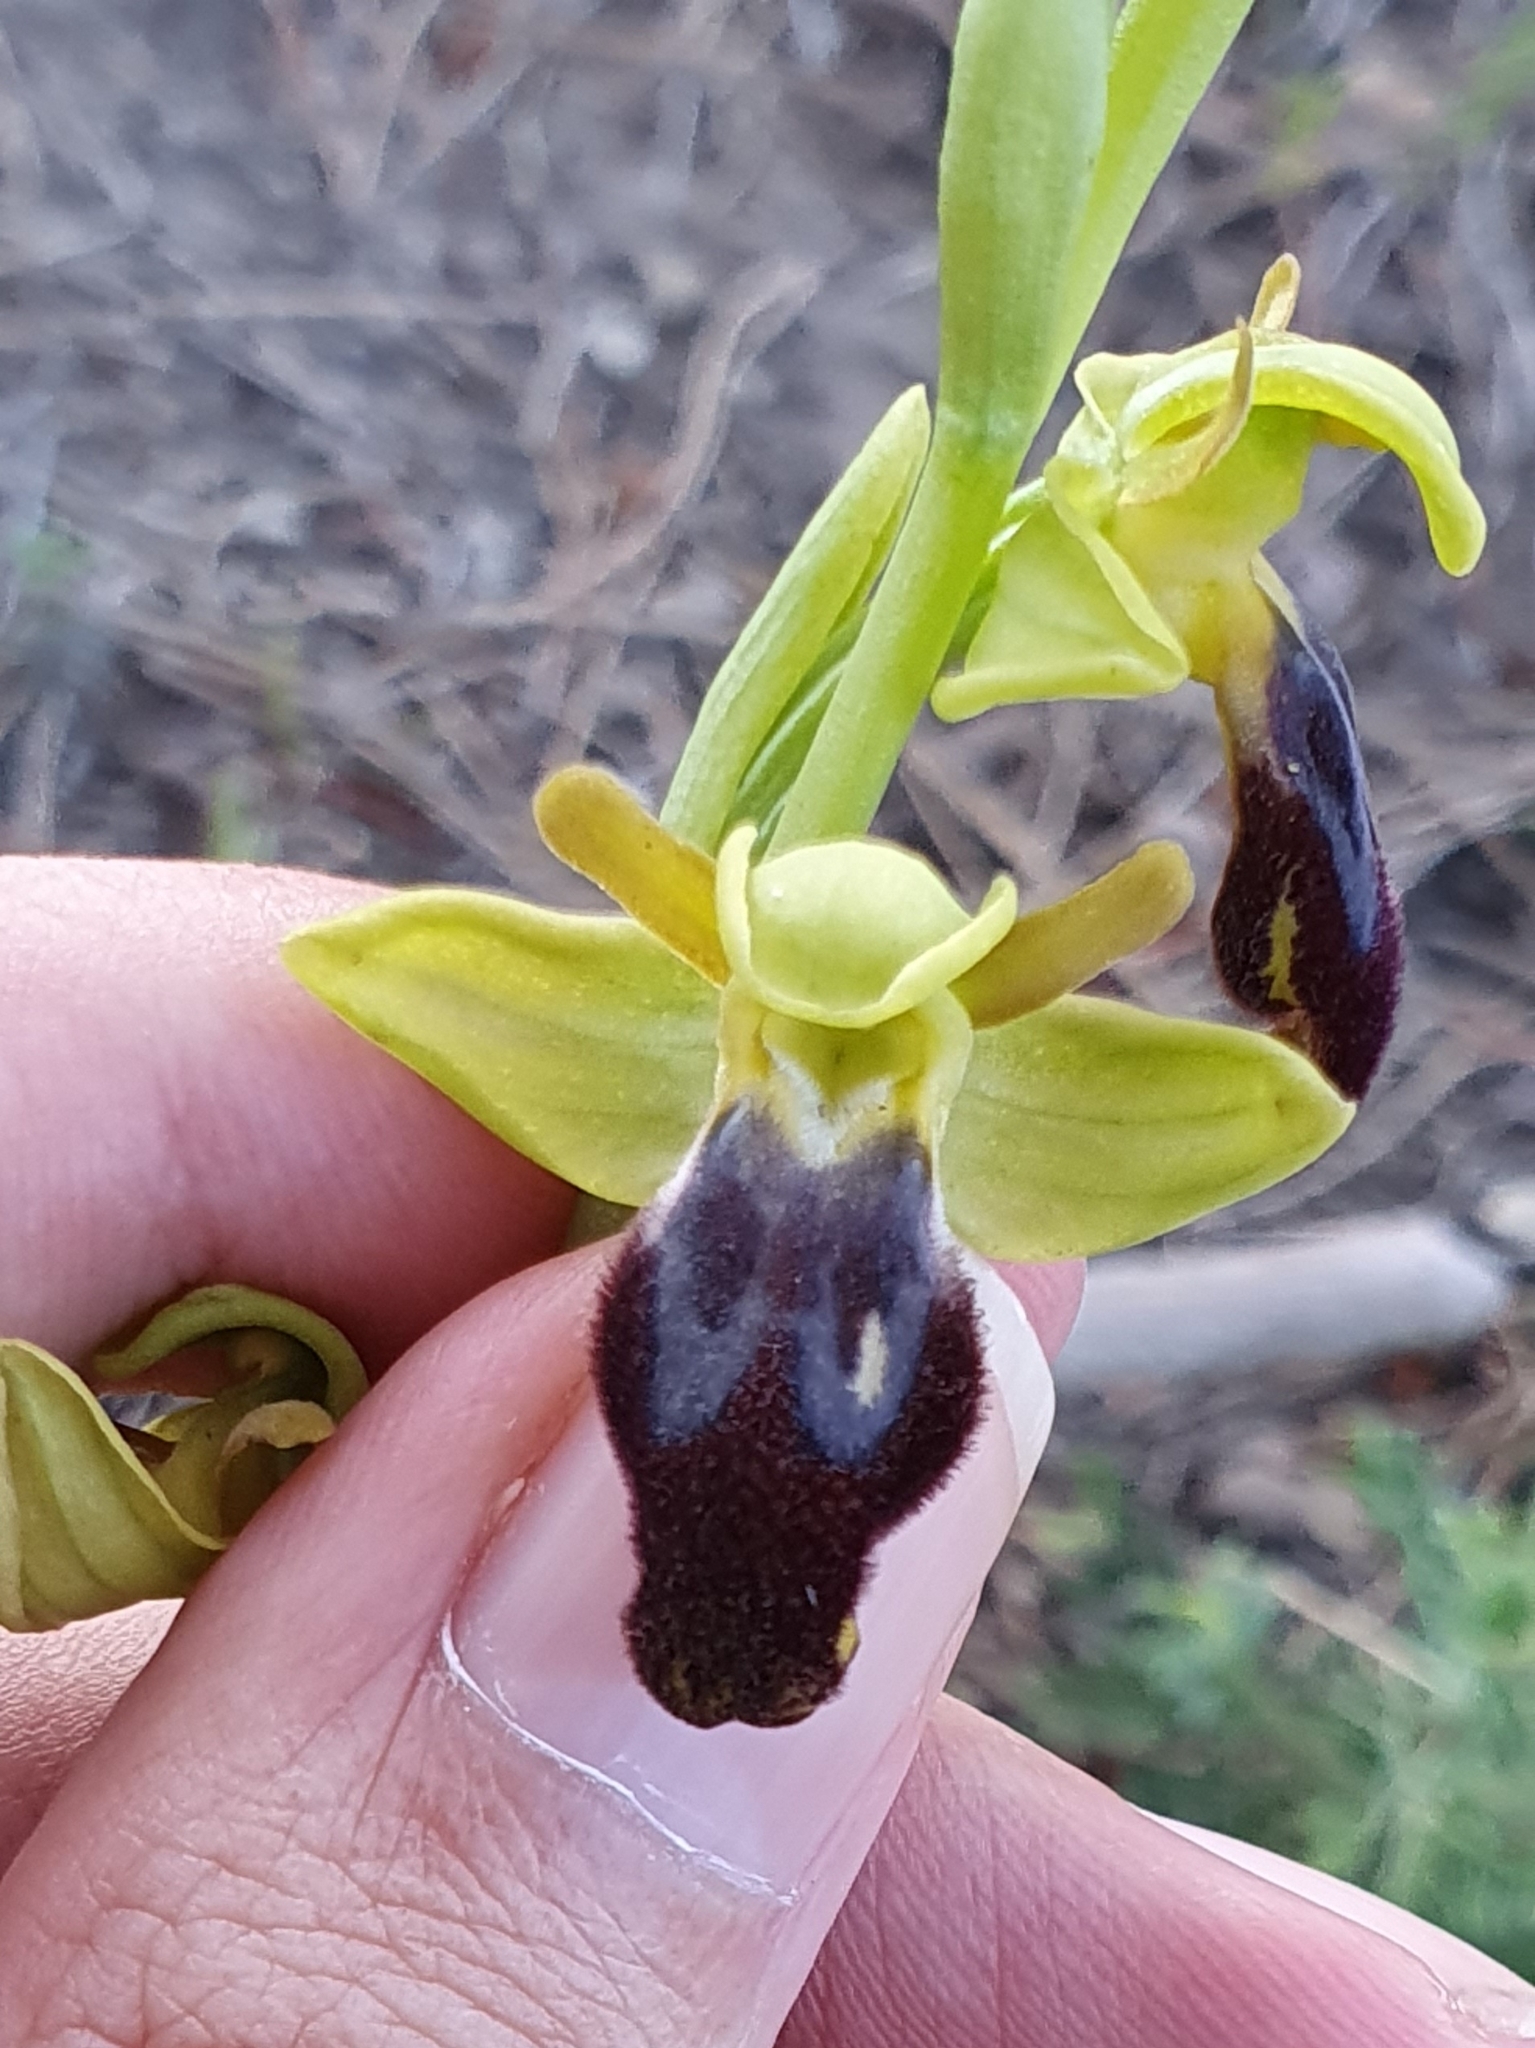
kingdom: Plantae
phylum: Tracheophyta
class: Liliopsida
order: Asparagales
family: Orchidaceae
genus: Ophrys
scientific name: Ophrys fusca
